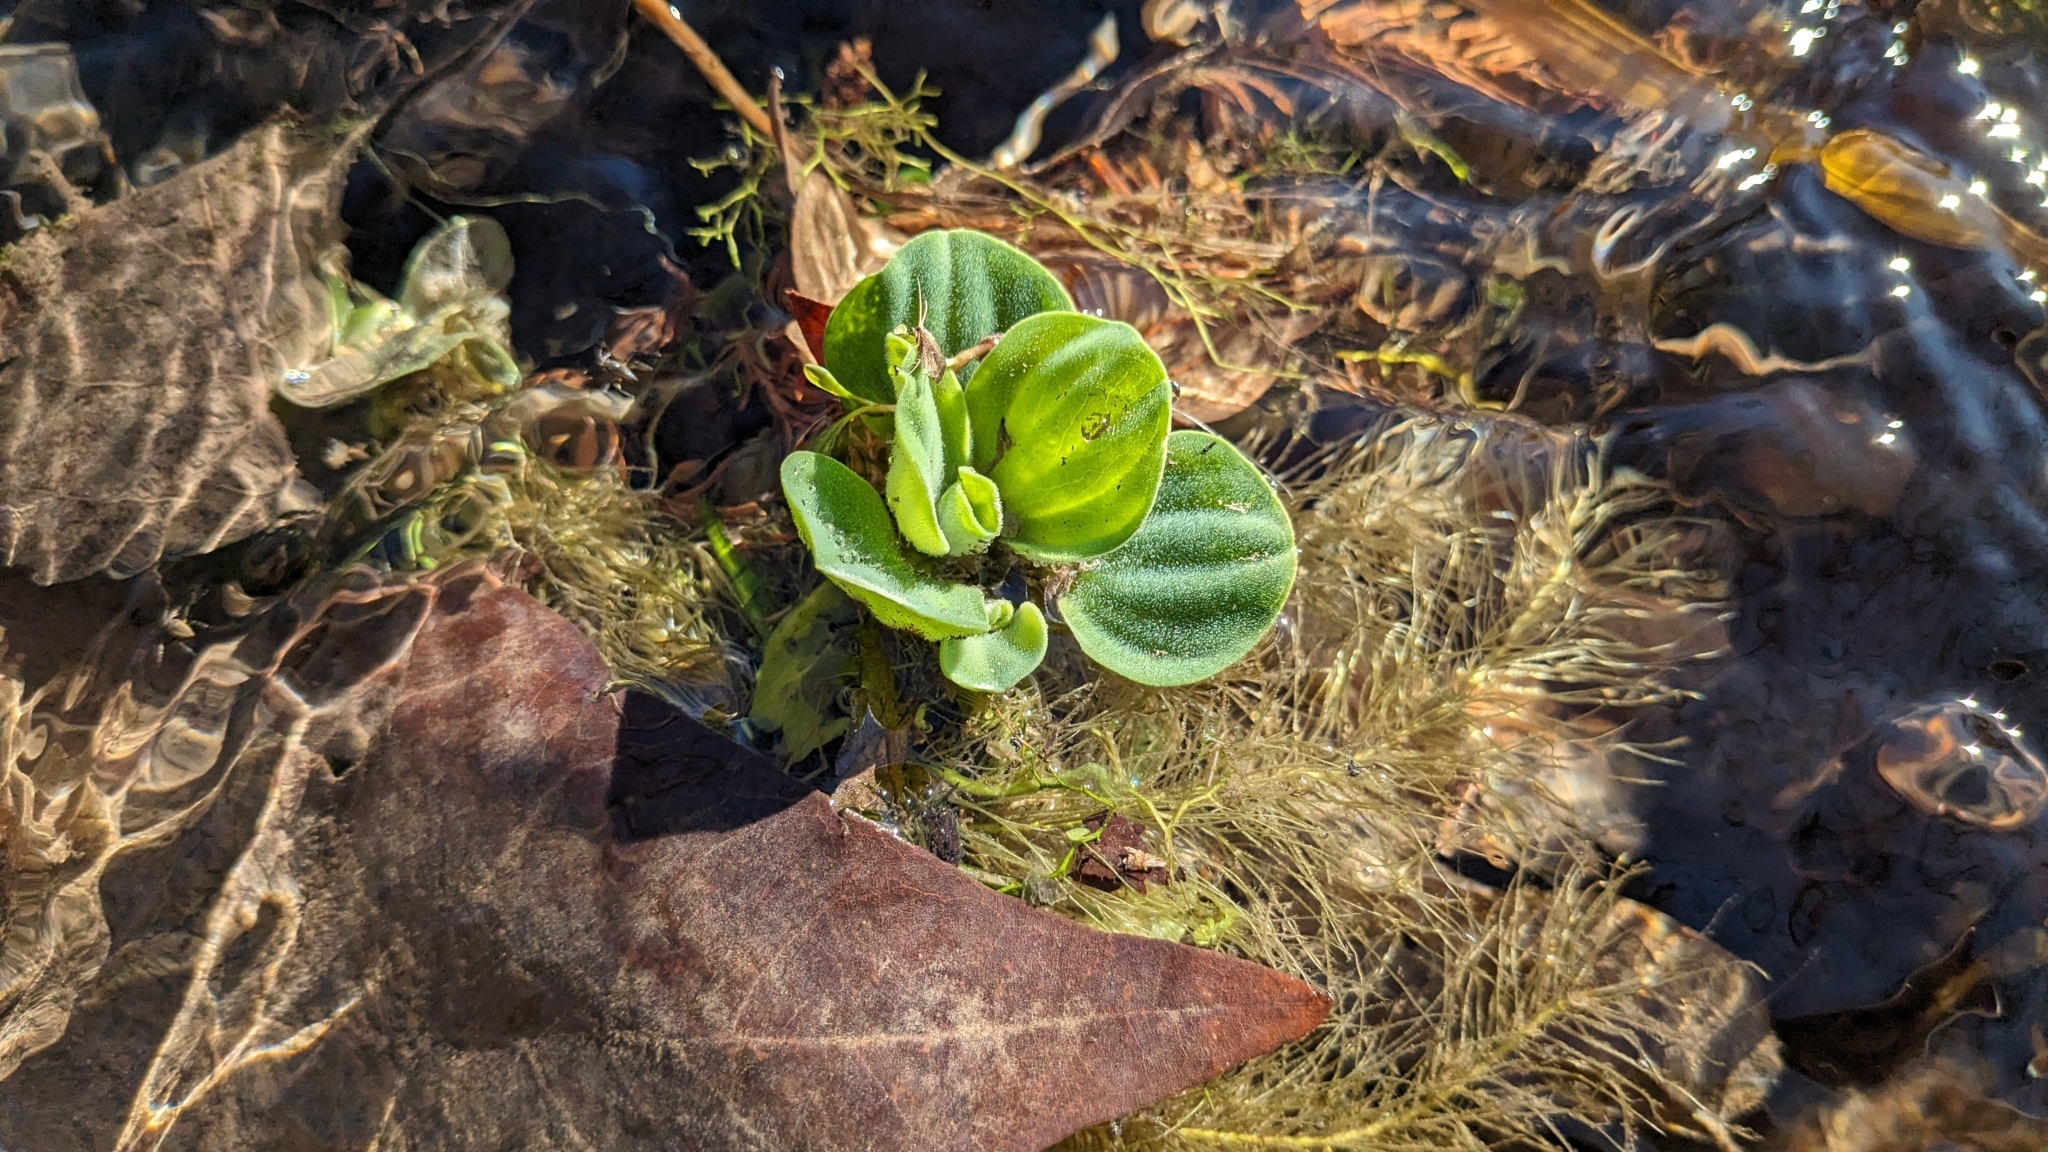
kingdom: Plantae
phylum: Tracheophyta
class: Liliopsida
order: Alismatales
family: Araceae
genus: Pistia
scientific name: Pistia stratiotes
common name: Water lettuce
